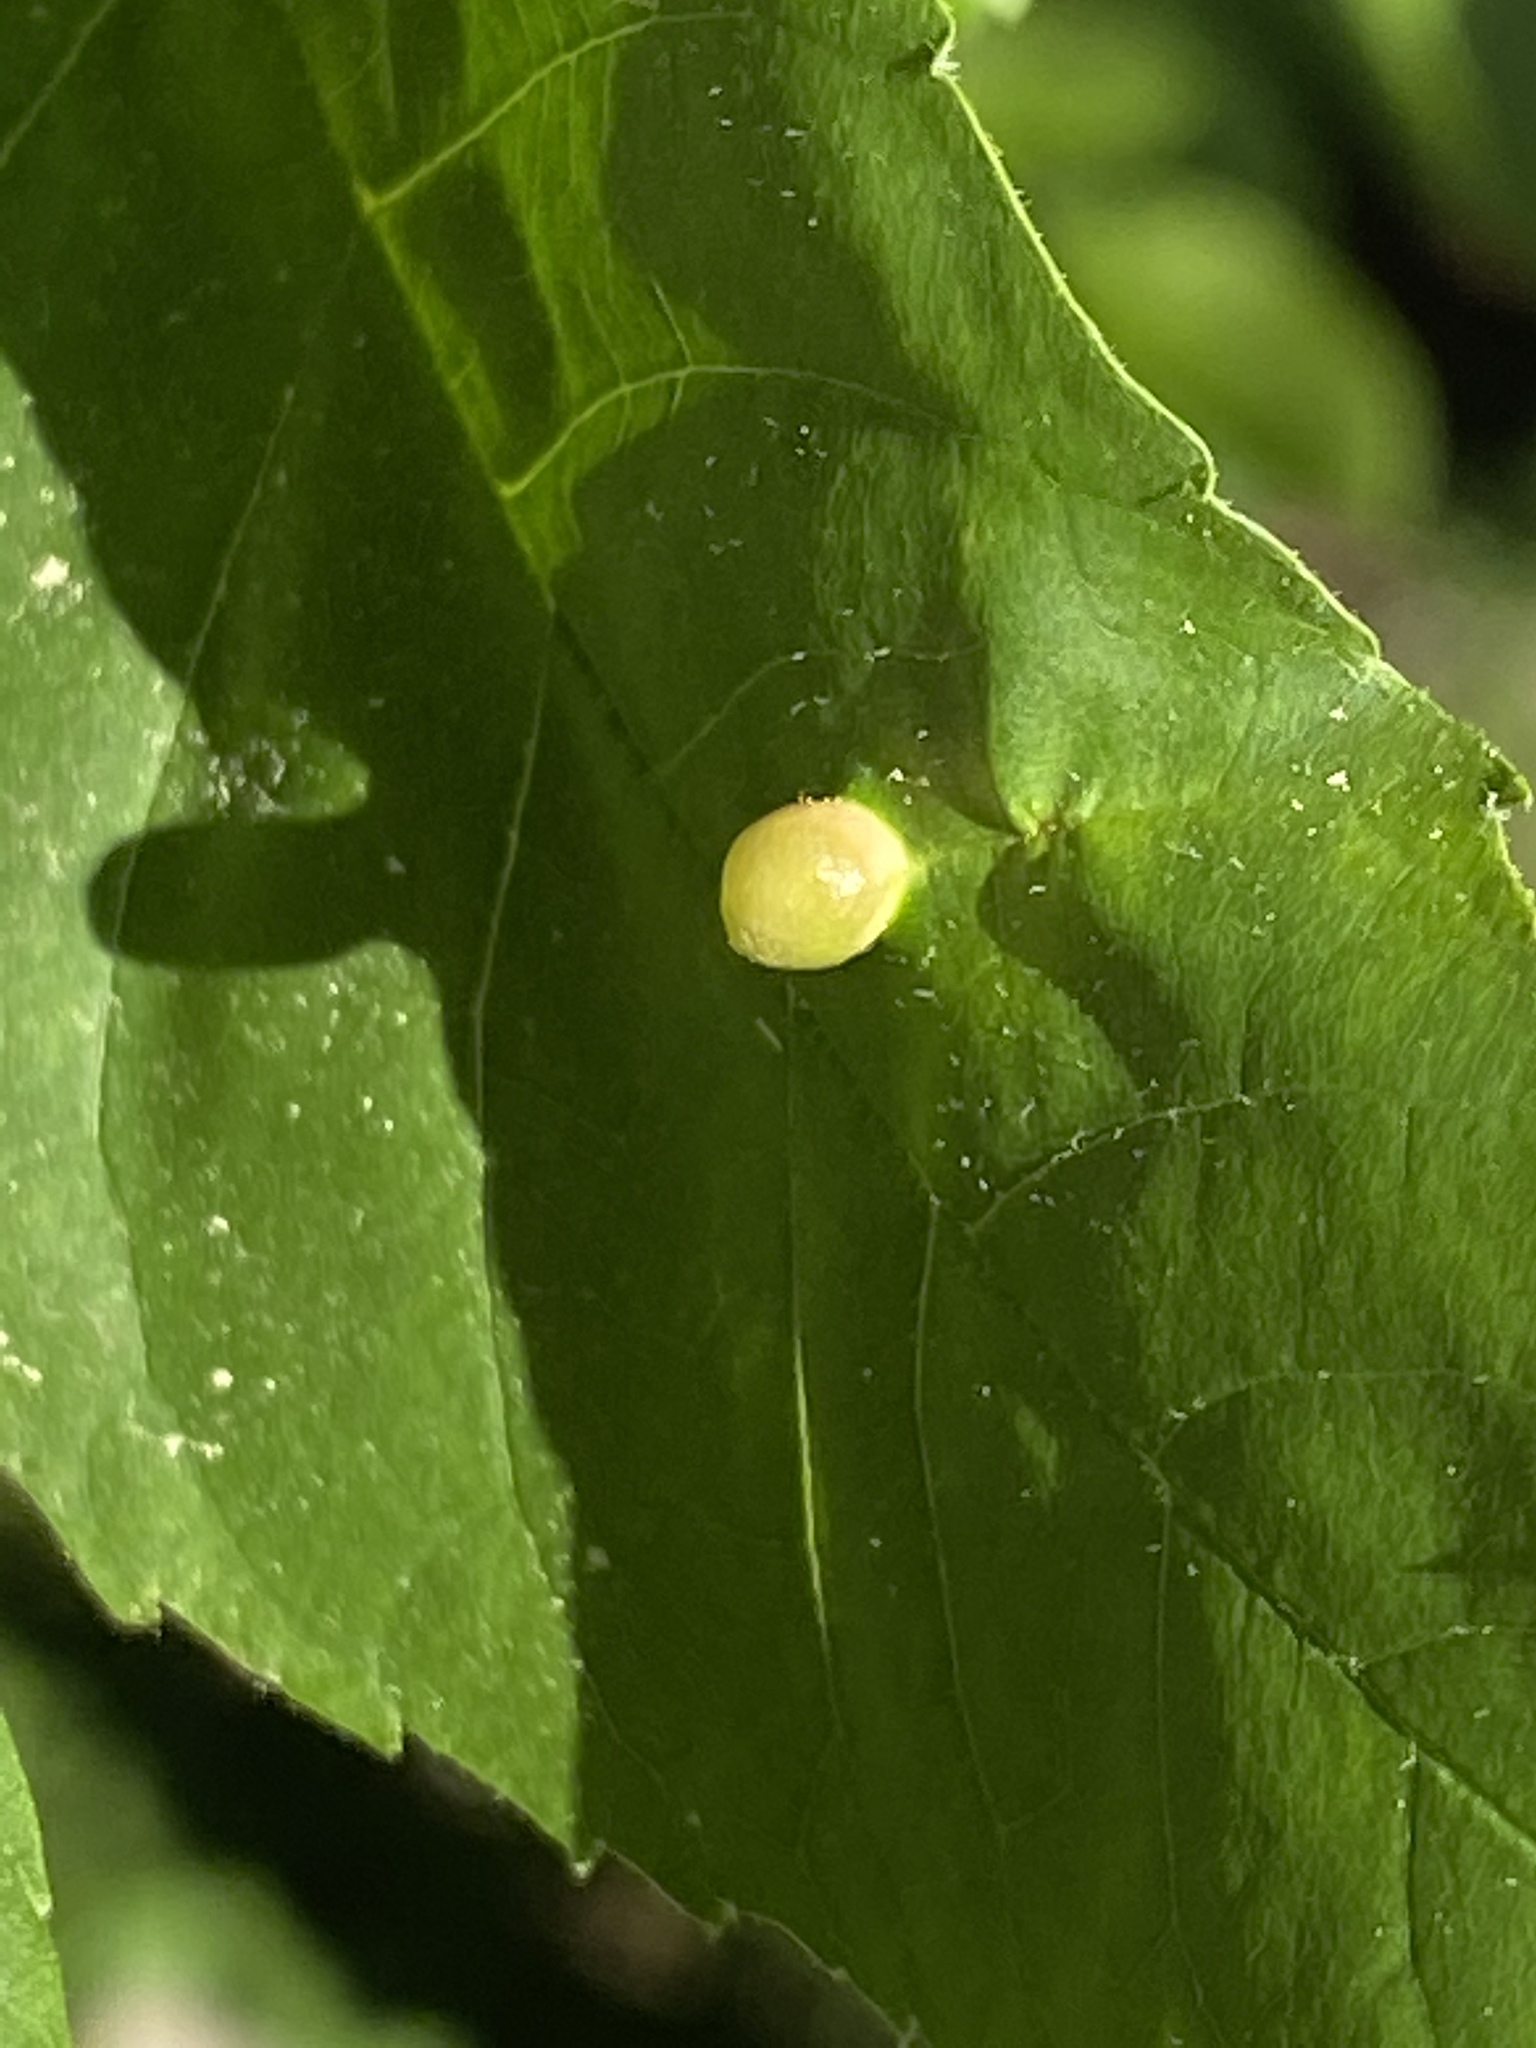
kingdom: Animalia
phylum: Arthropoda
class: Insecta
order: Diptera
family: Cecidomyiidae
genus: Dasineura
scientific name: Dasineura pellex
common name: Ash bullet gall midge
